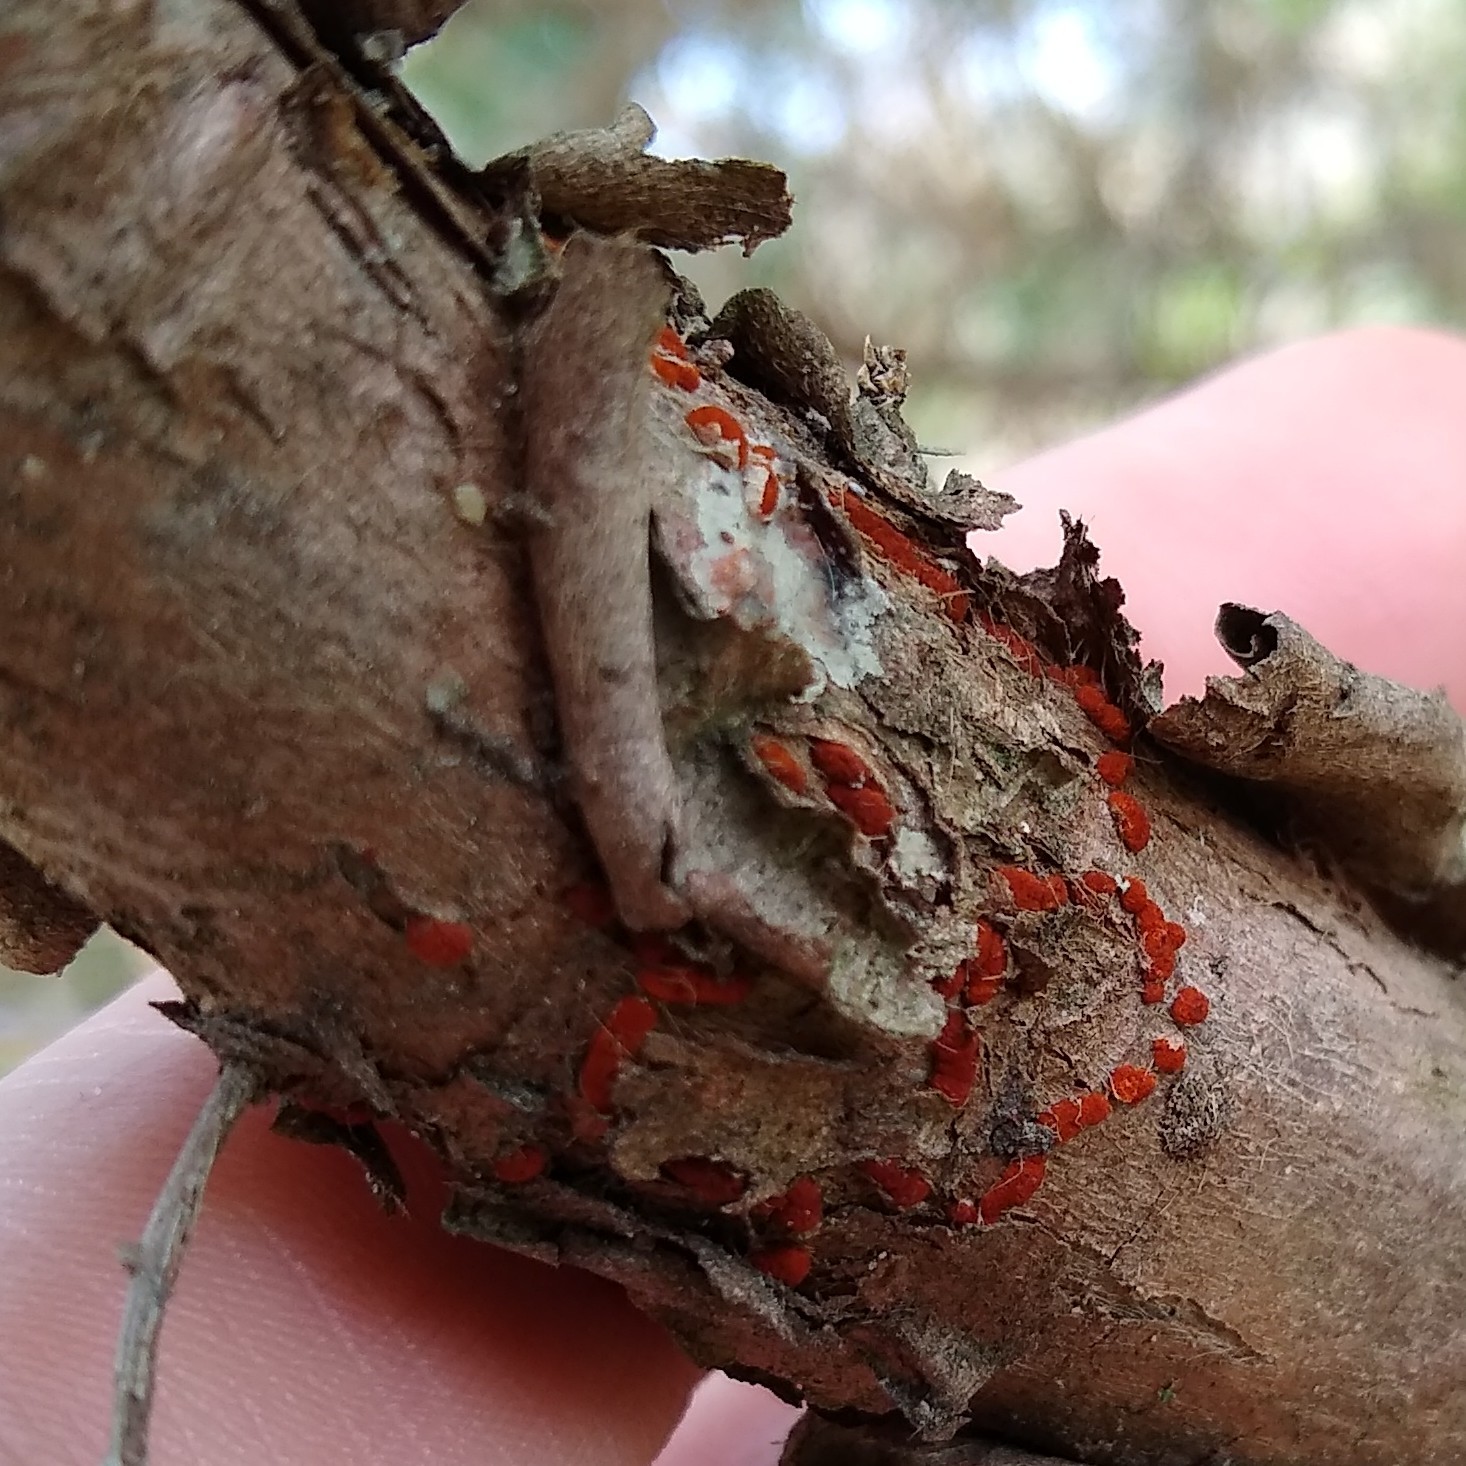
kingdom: Fungi
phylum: Basidiomycota
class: Pucciniomycetes
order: Pucciniales
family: Gymnosporangiaceae
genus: Gymnosporangium
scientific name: Gymnosporangium clavipes
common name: Quince rust
